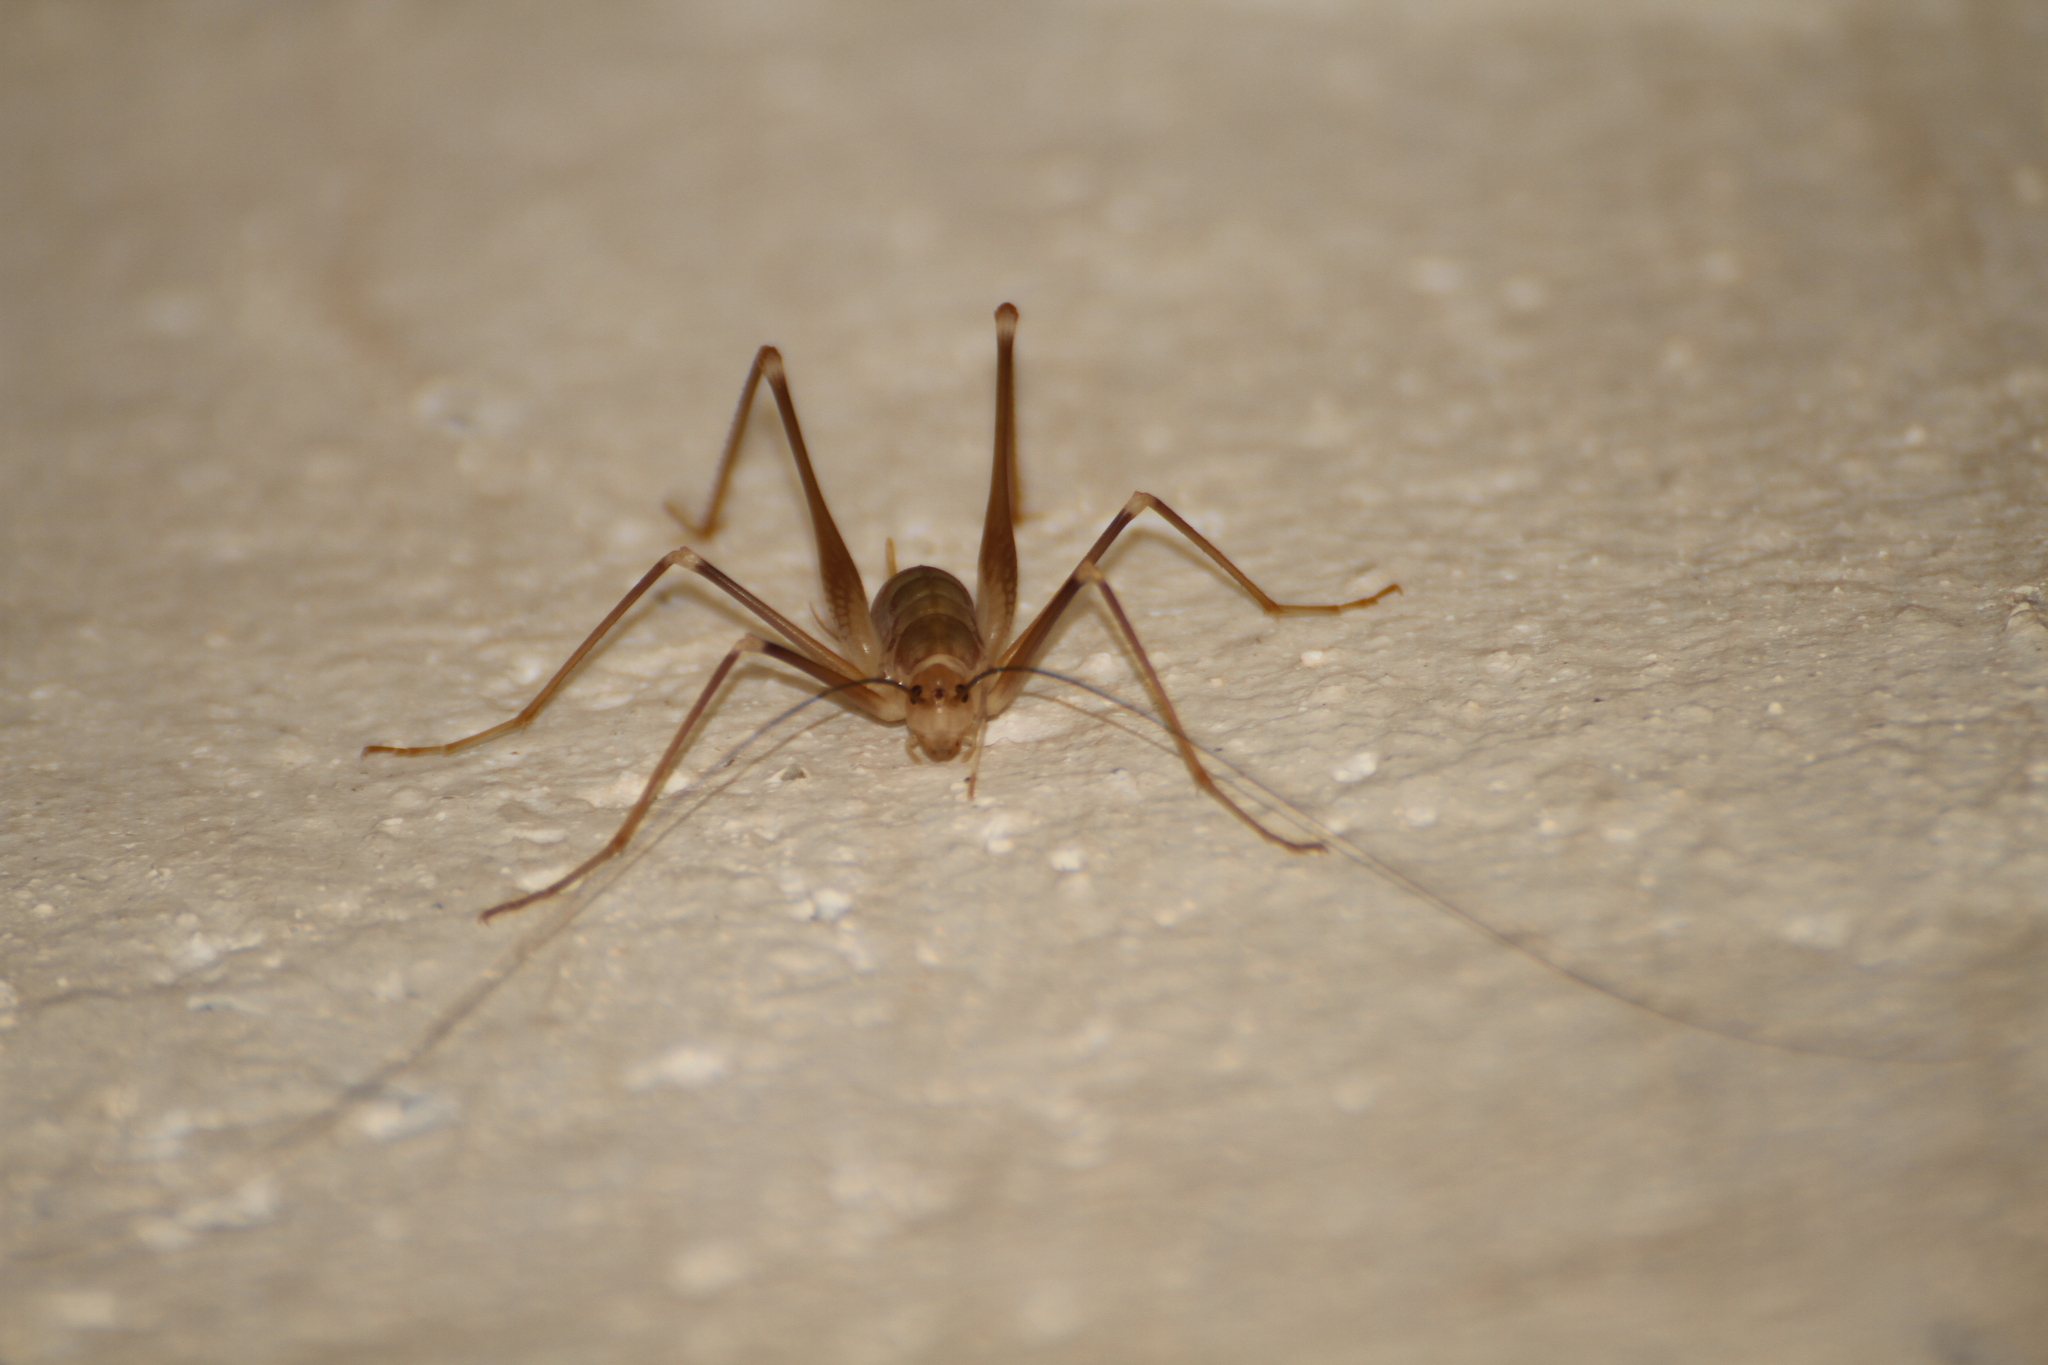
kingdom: Animalia
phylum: Arthropoda
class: Insecta
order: Orthoptera
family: Rhaphidophoridae
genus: Dolichopoda
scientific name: Dolichopoda azami
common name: Azam's cave-cricket
